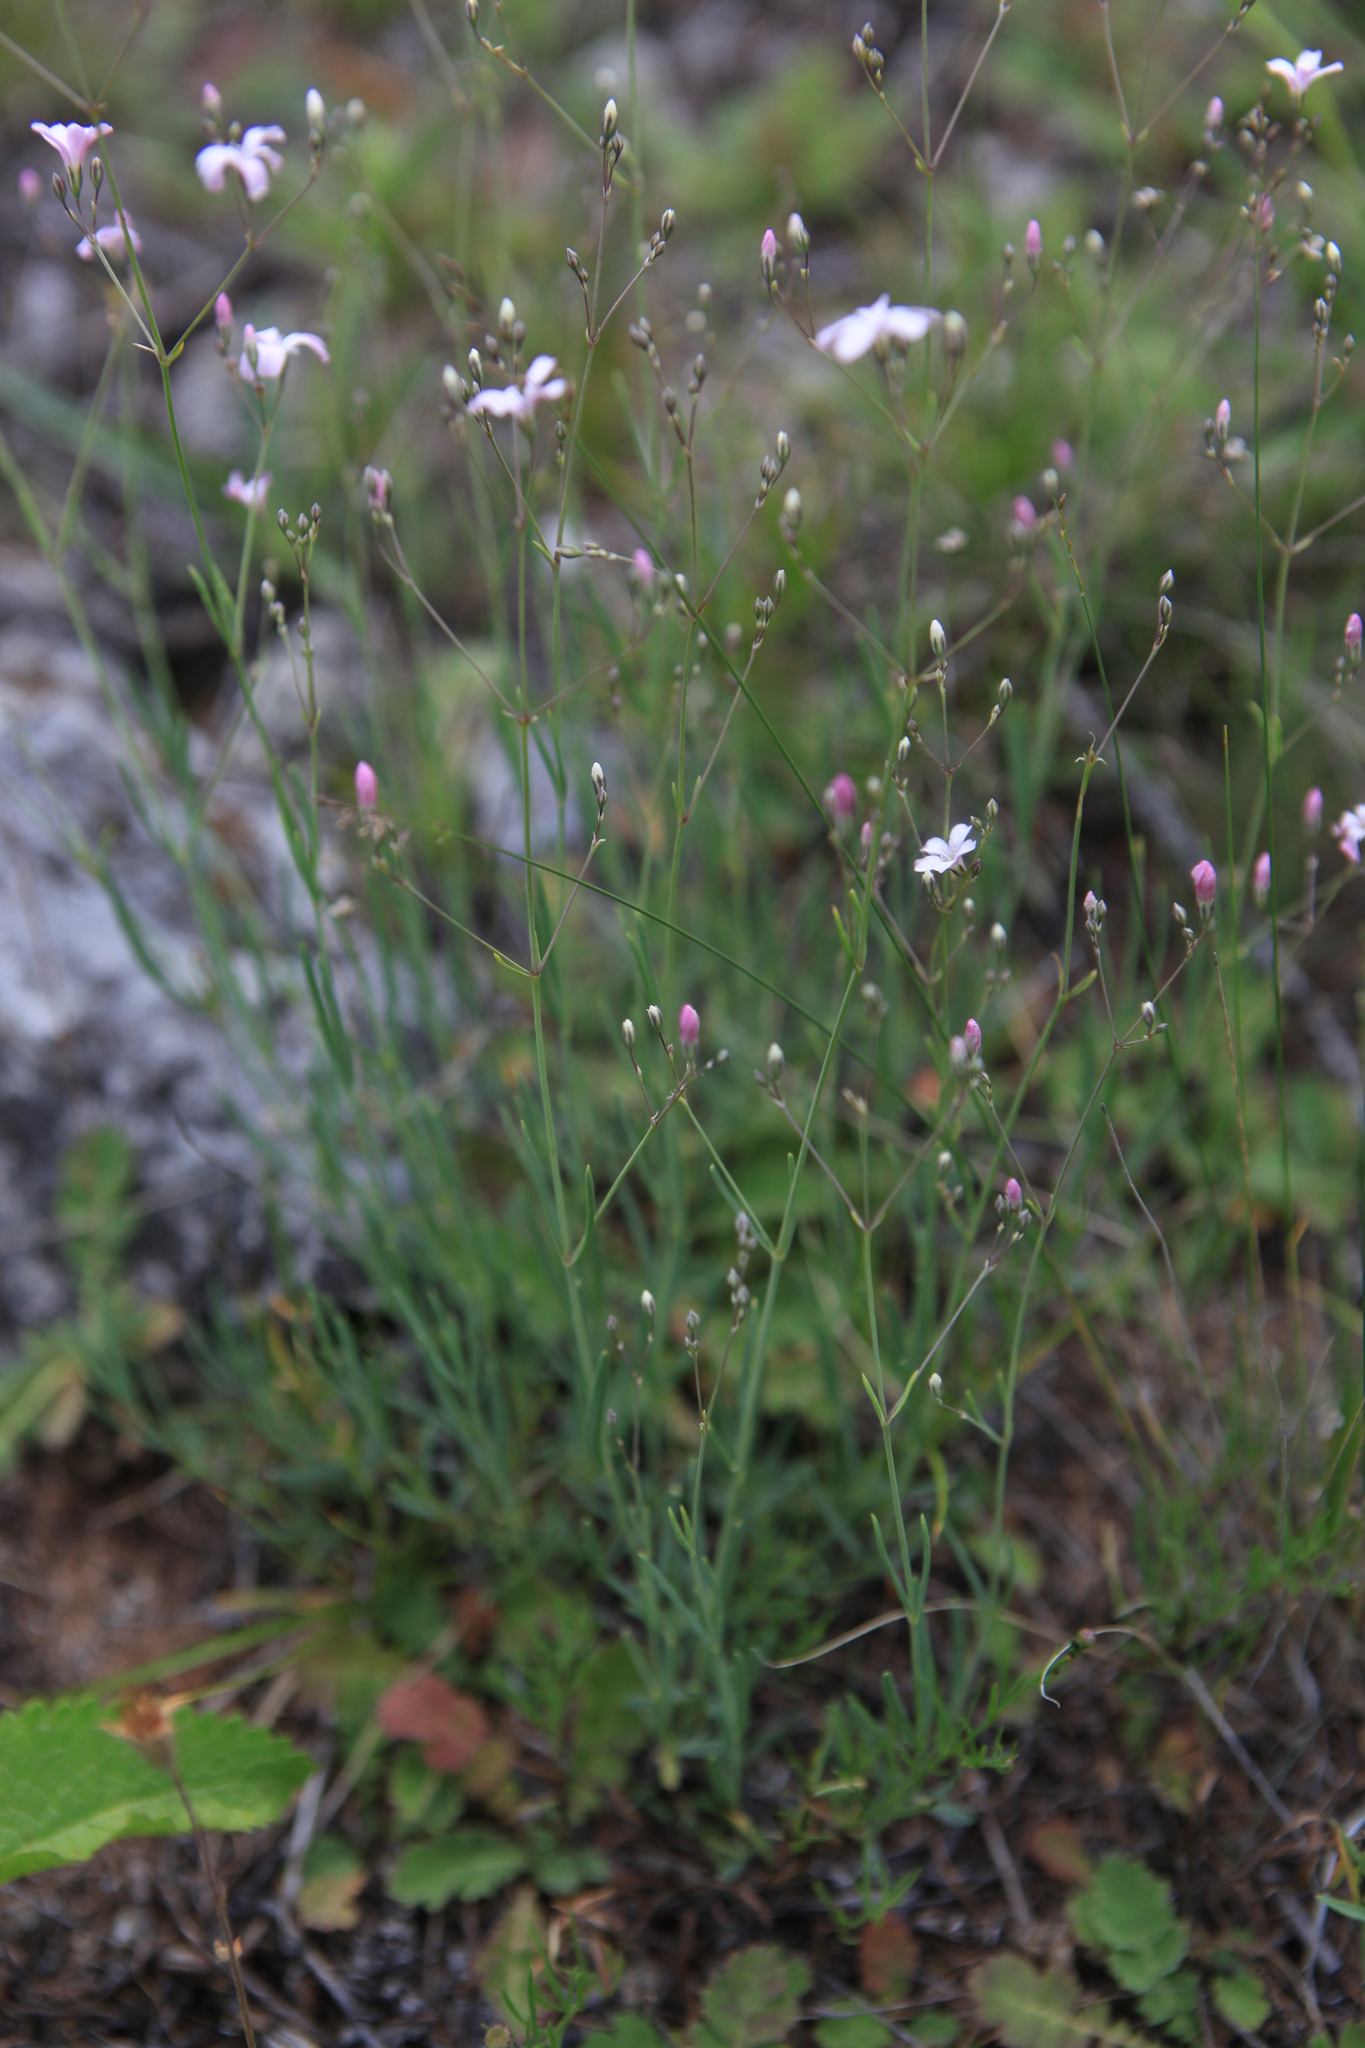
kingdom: Plantae
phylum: Tracheophyta
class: Magnoliopsida
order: Caryophyllales
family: Caryophyllaceae
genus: Gypsophila
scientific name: Gypsophila patrinii
